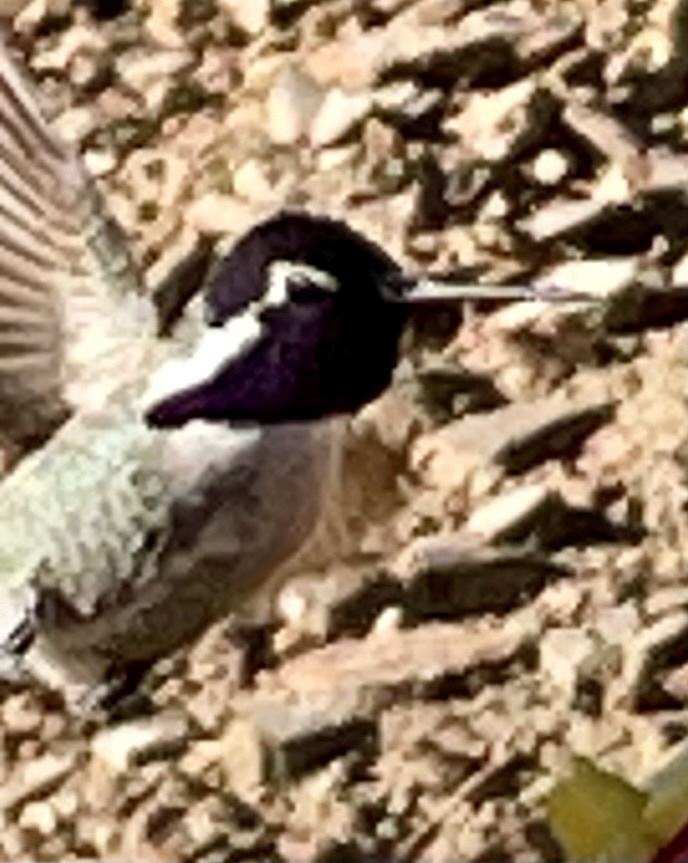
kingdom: Animalia
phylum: Chordata
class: Aves
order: Apodiformes
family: Trochilidae
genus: Calypte
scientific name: Calypte costae
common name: Costa's hummingbird
